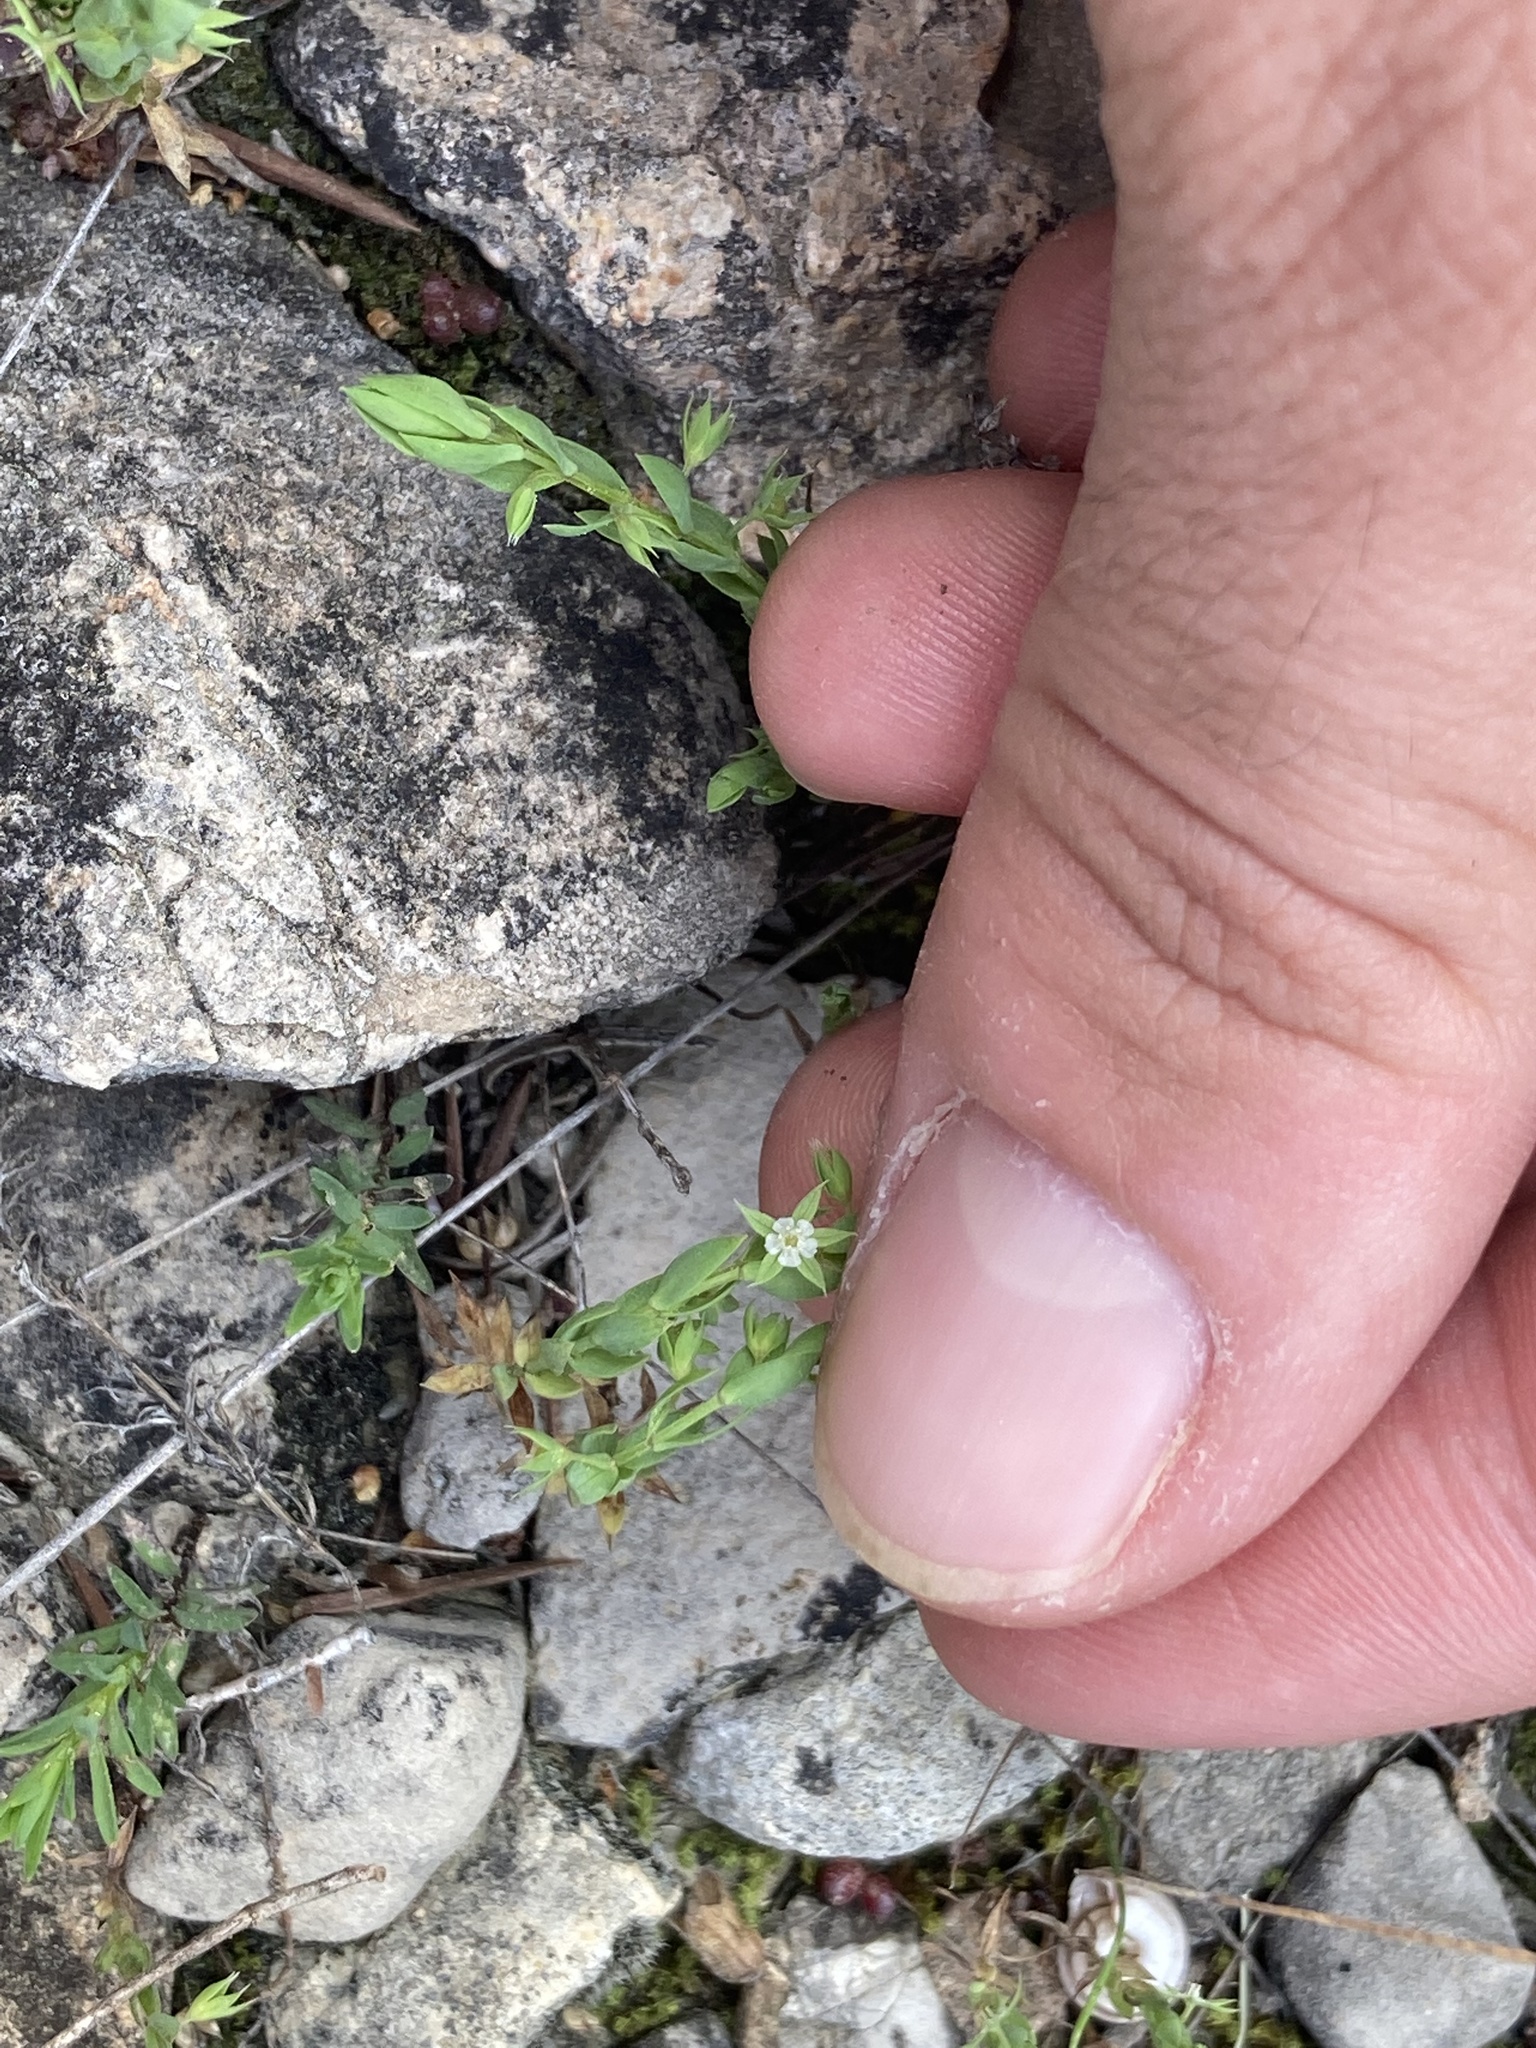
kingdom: Plantae
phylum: Tracheophyta
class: Magnoliopsida
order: Ericales
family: Primulaceae
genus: Lysimachia
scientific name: Lysimachia linum-stellatum
